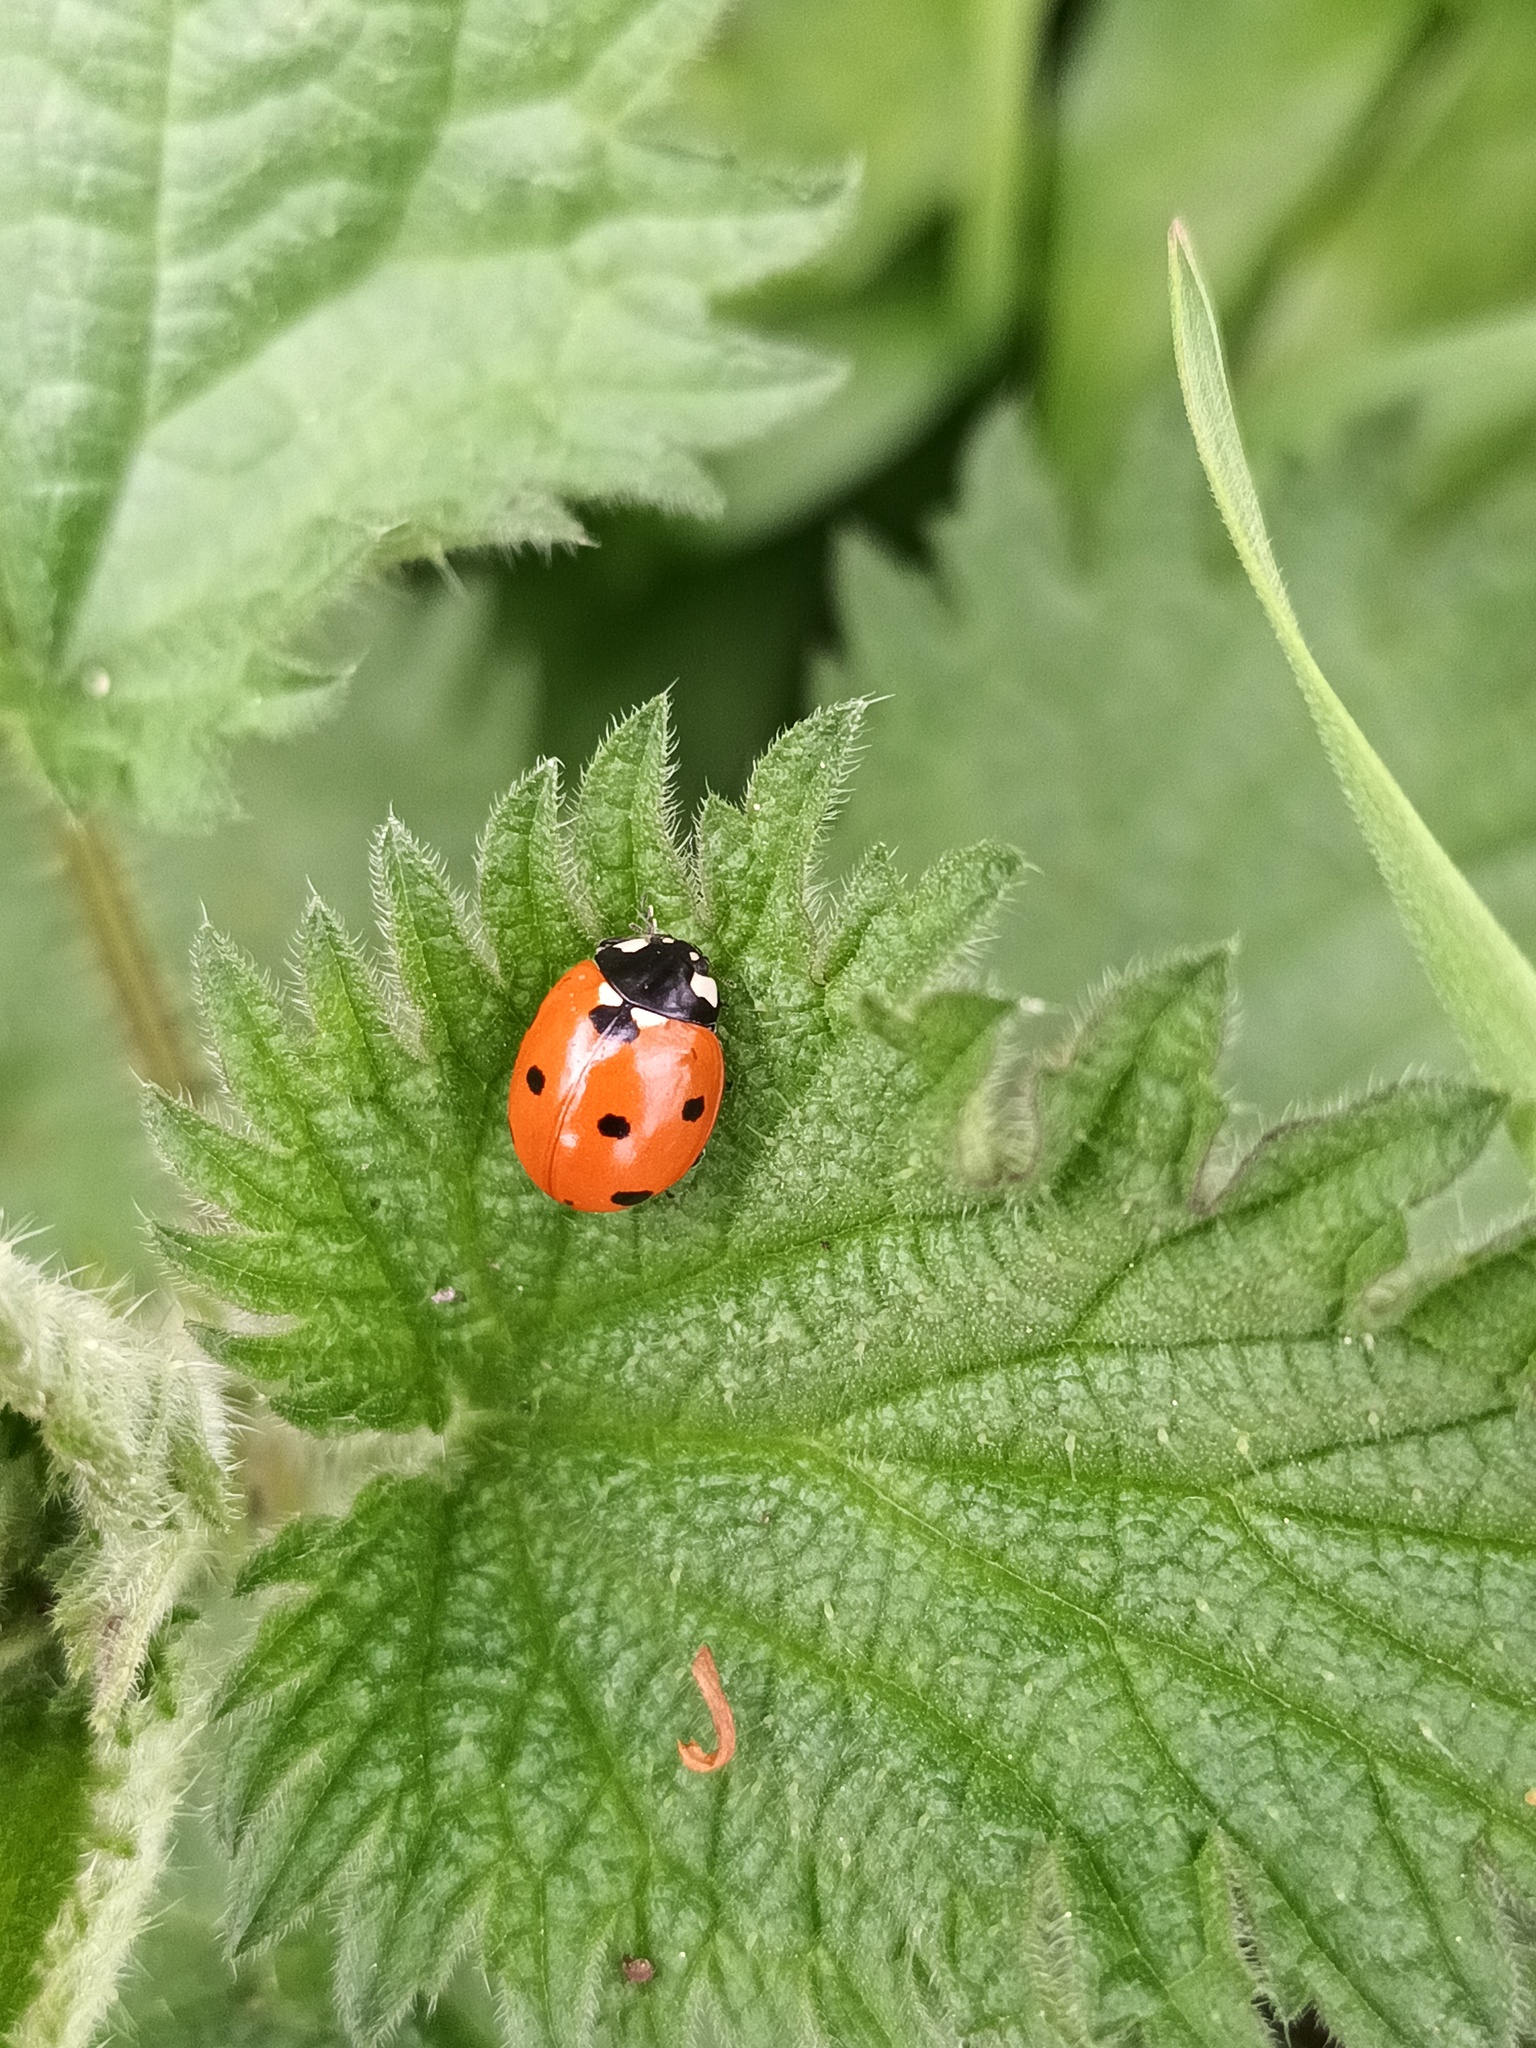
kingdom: Animalia
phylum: Arthropoda
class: Insecta
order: Coleoptera
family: Coccinellidae
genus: Coccinella
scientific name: Coccinella septempunctata
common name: Sevenspotted lady beetle
